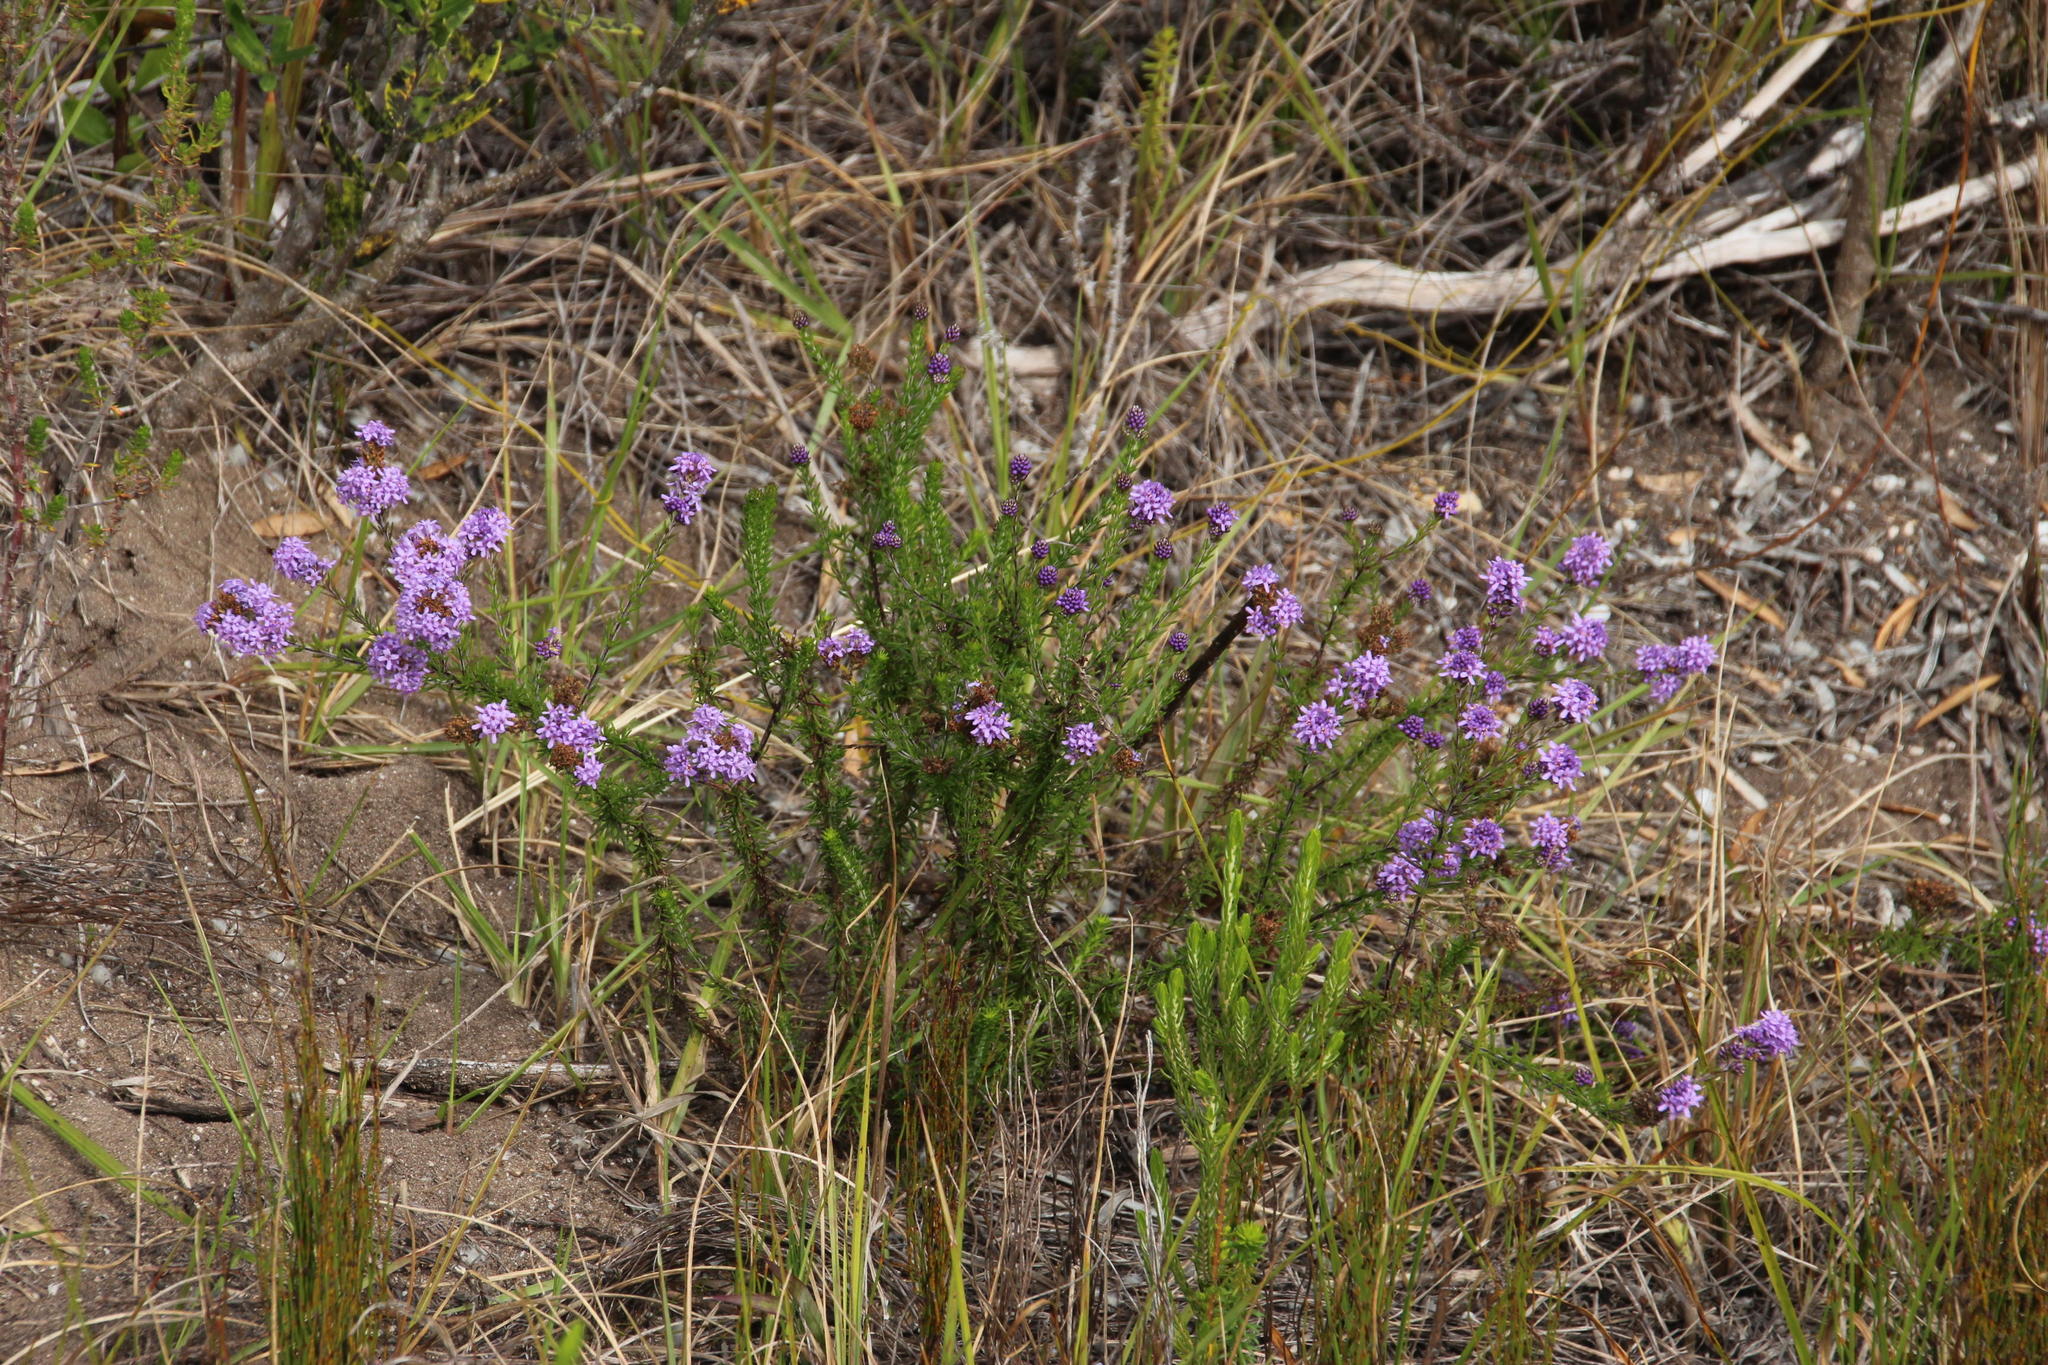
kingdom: Plantae
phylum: Tracheophyta
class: Magnoliopsida
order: Lamiales
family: Scrophulariaceae
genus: Selago
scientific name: Selago canescens
